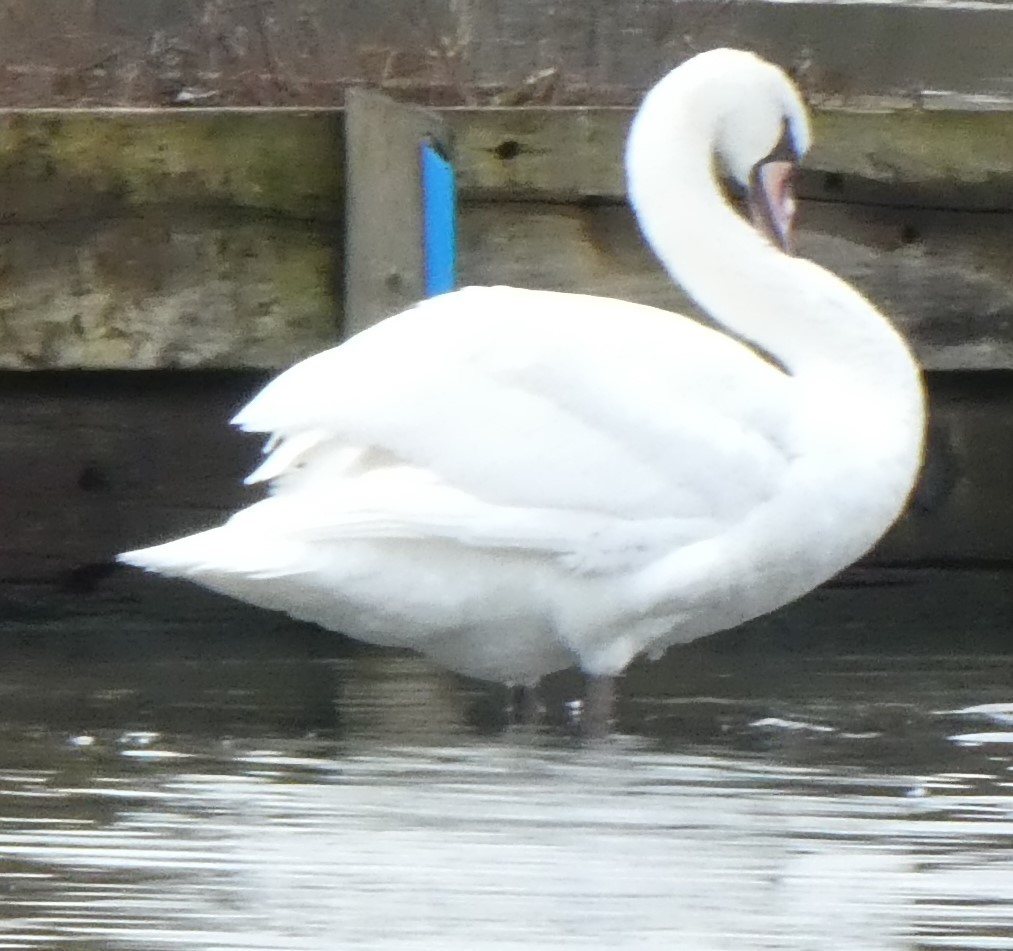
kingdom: Animalia
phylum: Chordata
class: Aves
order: Anseriformes
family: Anatidae
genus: Cygnus
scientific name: Cygnus olor
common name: Mute swan
